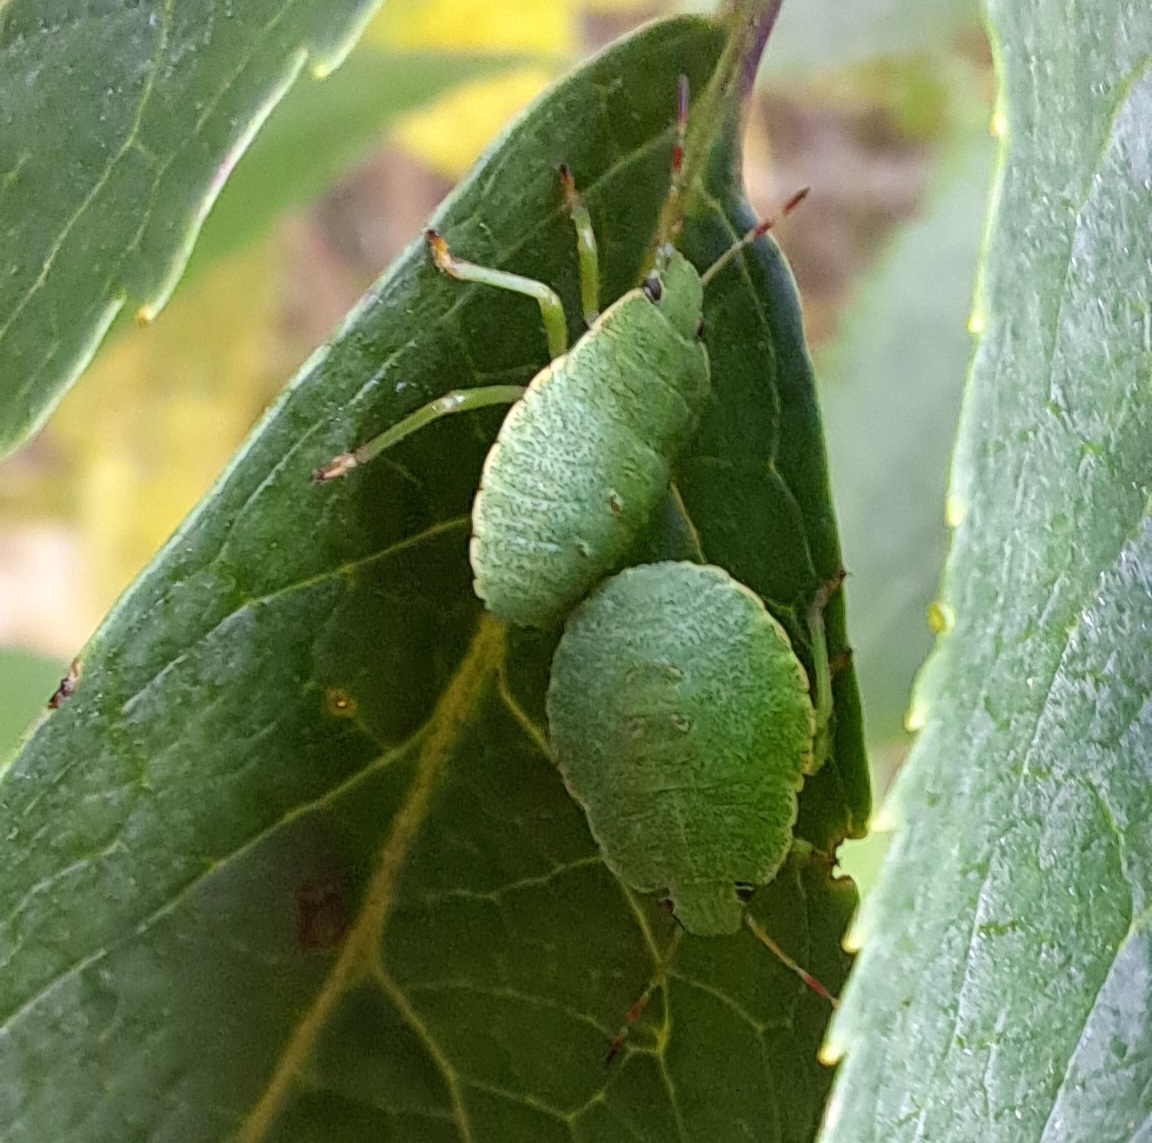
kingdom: Animalia
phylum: Arthropoda
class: Insecta
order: Hemiptera
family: Pentatomidae
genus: Palomena
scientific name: Palomena prasina
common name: Green shieldbug
